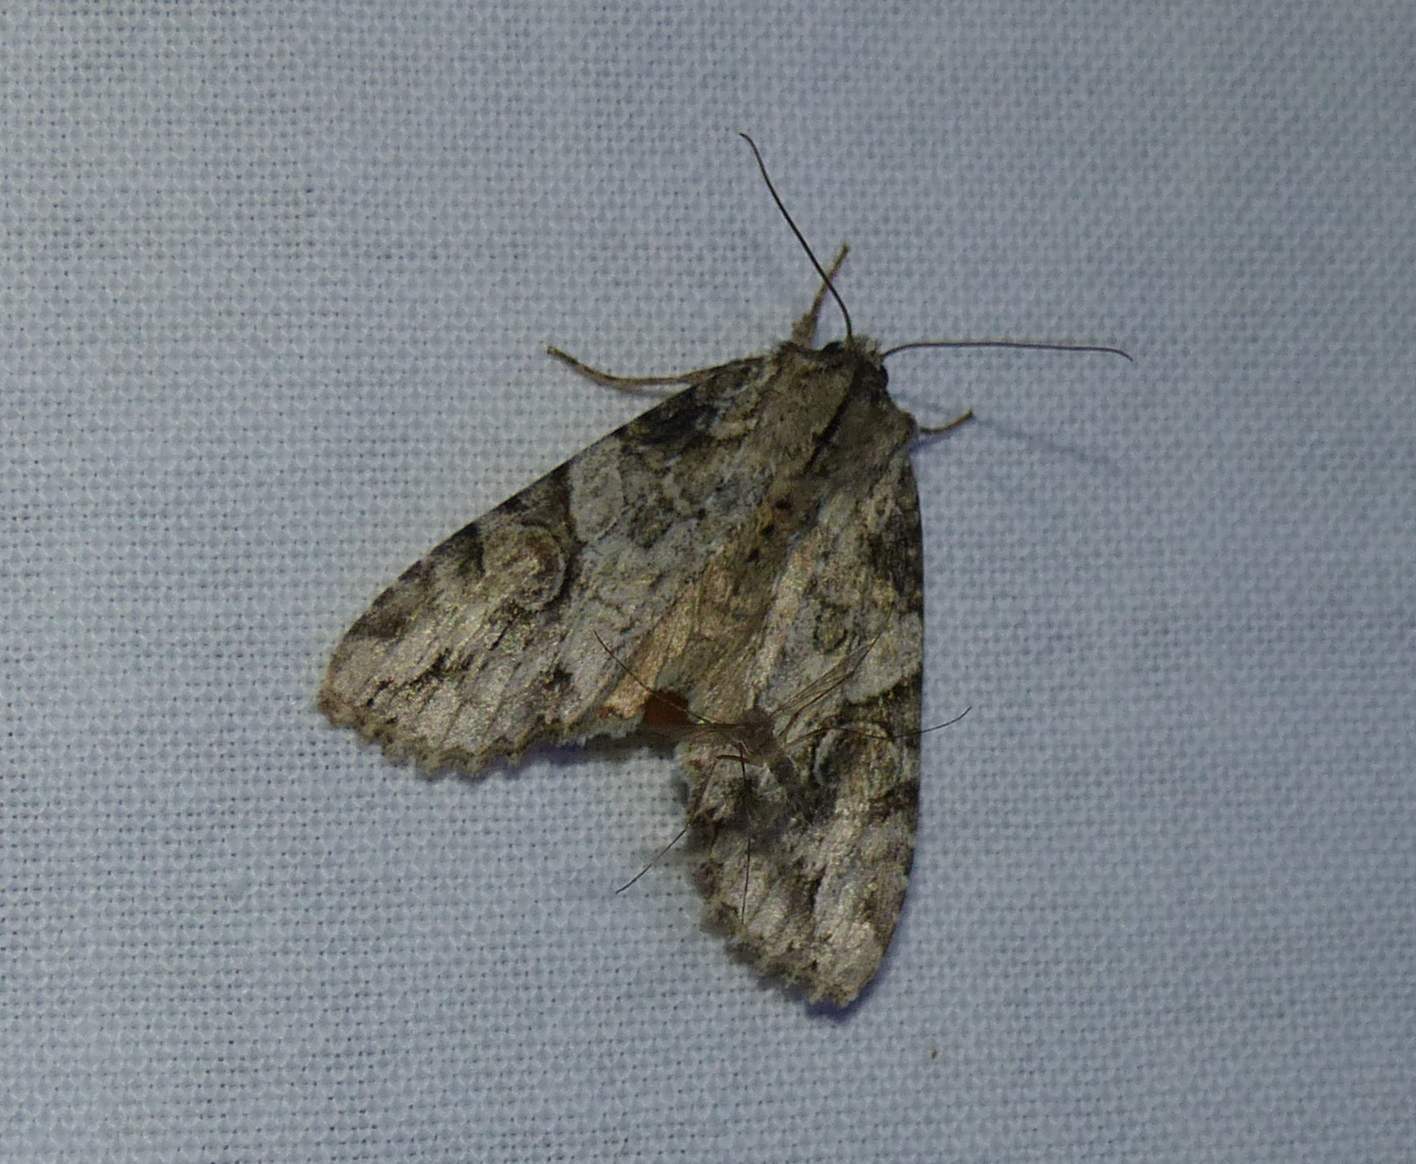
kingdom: Animalia
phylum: Arthropoda
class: Insecta
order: Lepidoptera
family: Noctuidae
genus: Achatia
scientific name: Achatia latex
